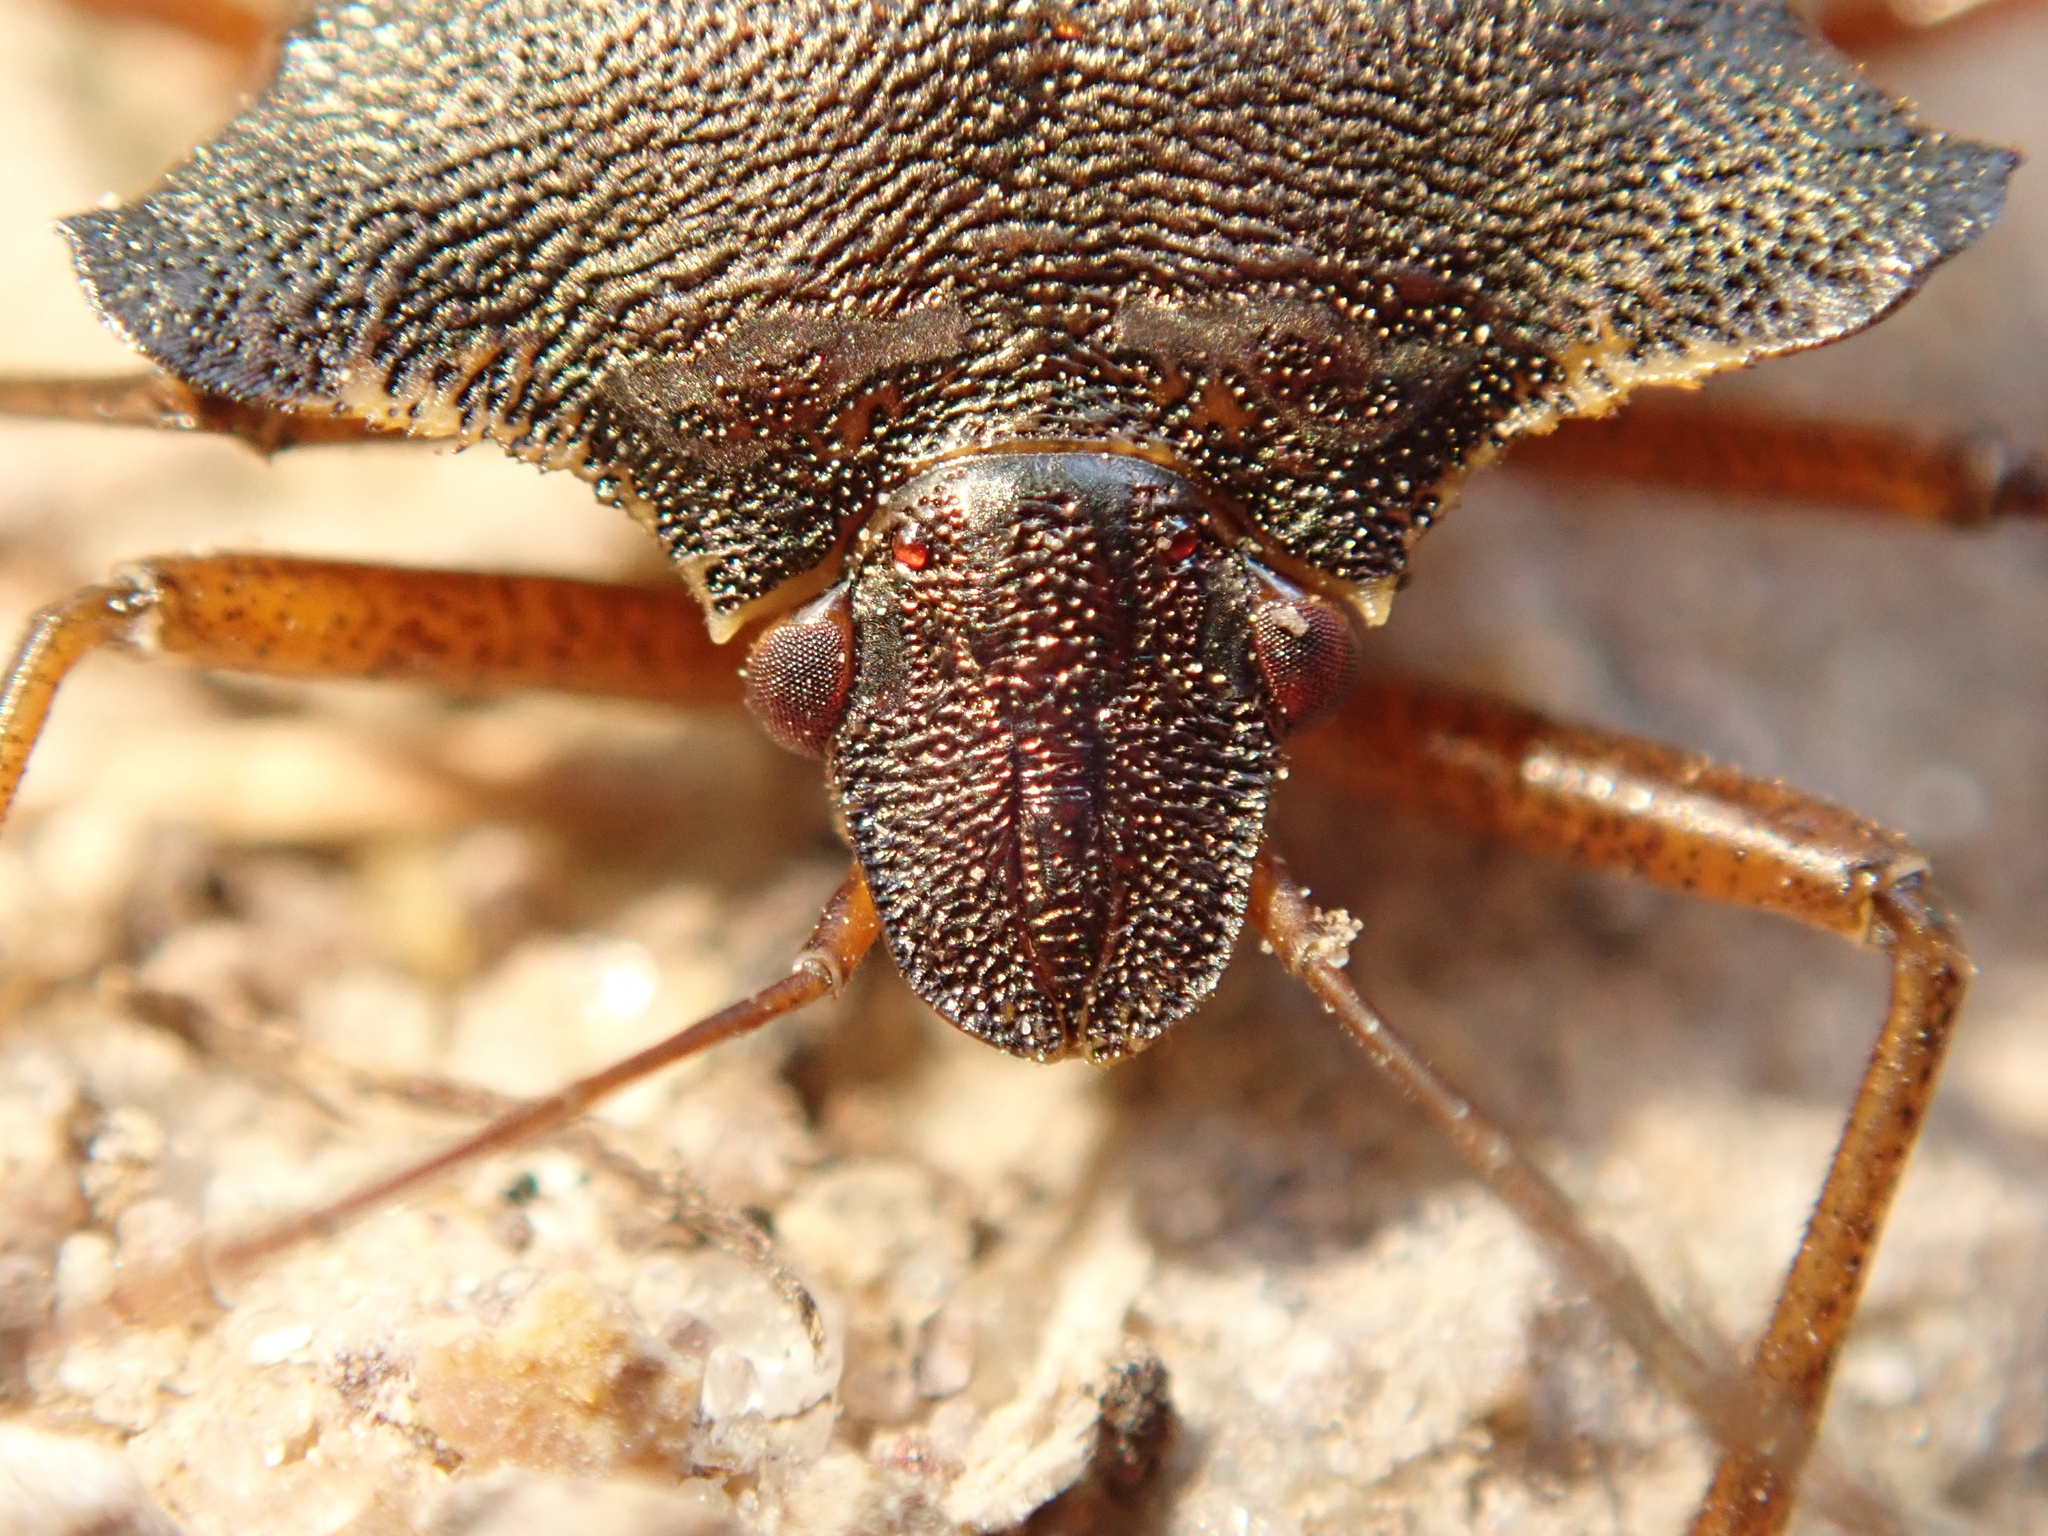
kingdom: Animalia
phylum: Arthropoda
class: Insecta
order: Hemiptera
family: Pentatomidae
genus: Pentatoma
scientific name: Pentatoma rufipes
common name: Forest bug
